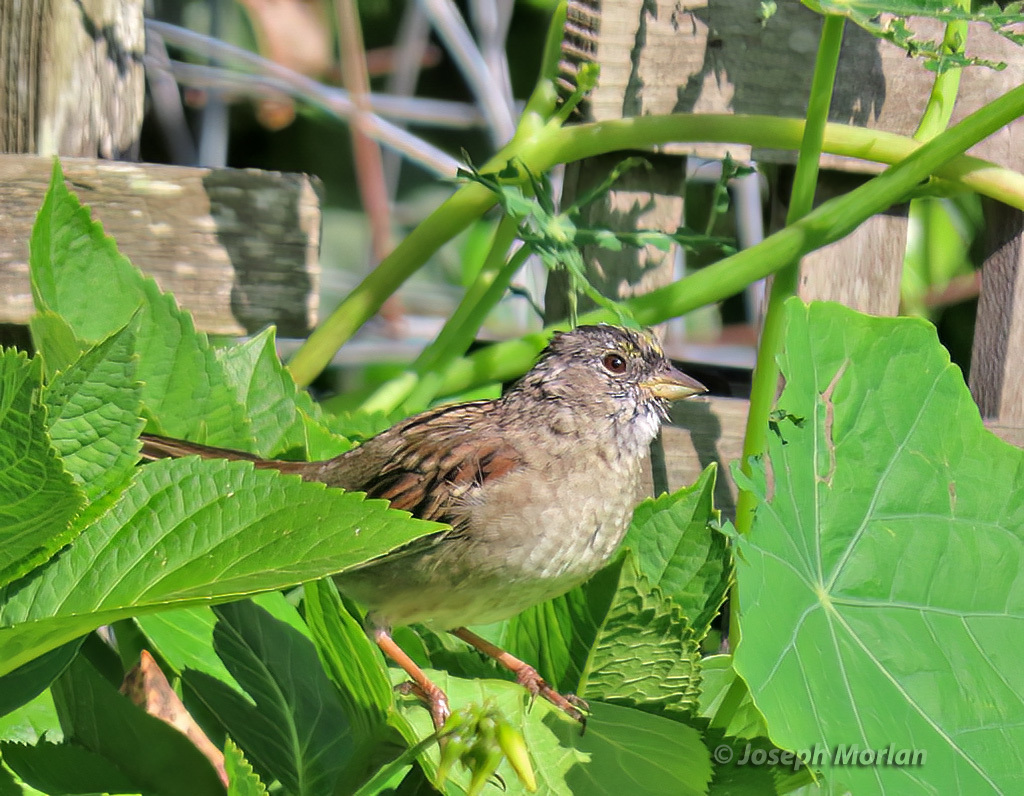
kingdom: Animalia
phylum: Chordata
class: Aves
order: Passeriformes
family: Passerellidae
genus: Zonotrichia
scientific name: Zonotrichia atricapilla
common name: Golden-crowned sparrow
